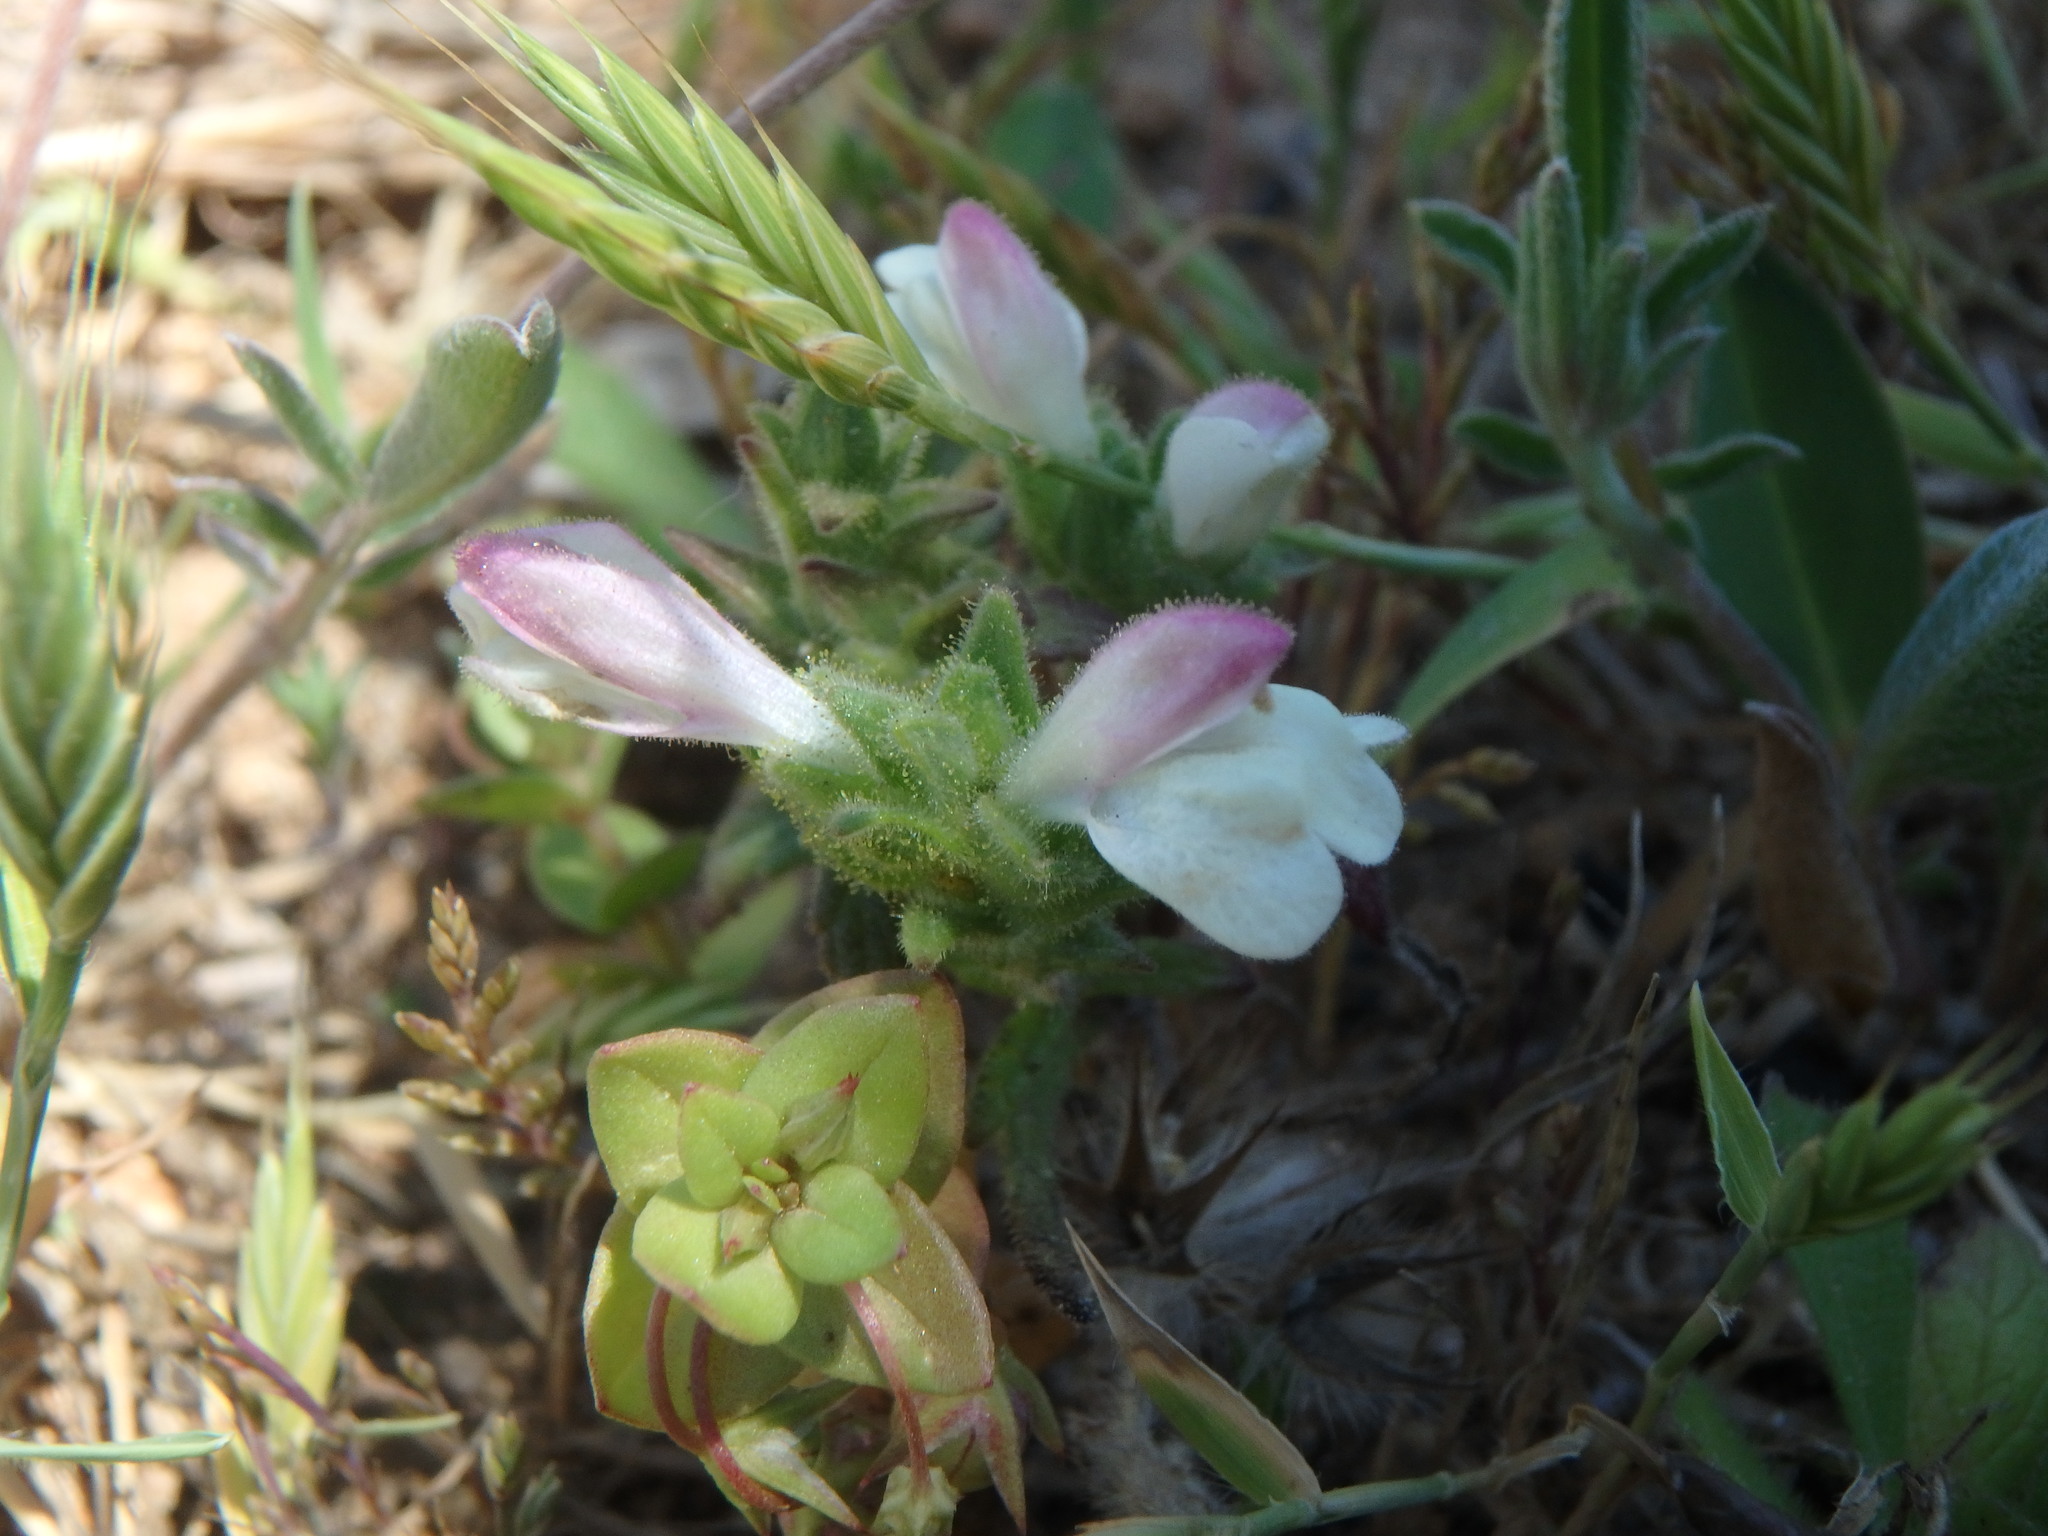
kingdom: Plantae
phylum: Tracheophyta
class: Magnoliopsida
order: Lamiales
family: Orobanchaceae
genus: Bellardia
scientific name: Bellardia trixago
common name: Mediterranean lineseed
